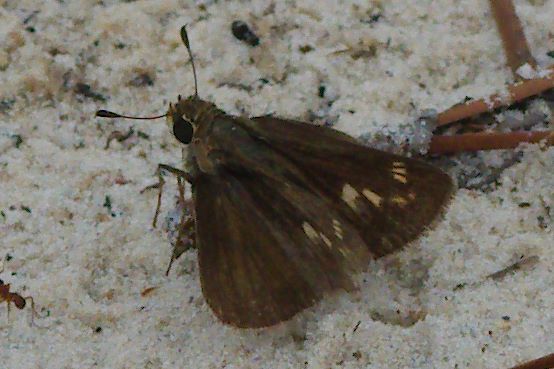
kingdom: Animalia
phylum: Arthropoda
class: Insecta
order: Lepidoptera
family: Hesperiidae
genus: Polites
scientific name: Polites vibex
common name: Whirlabout
